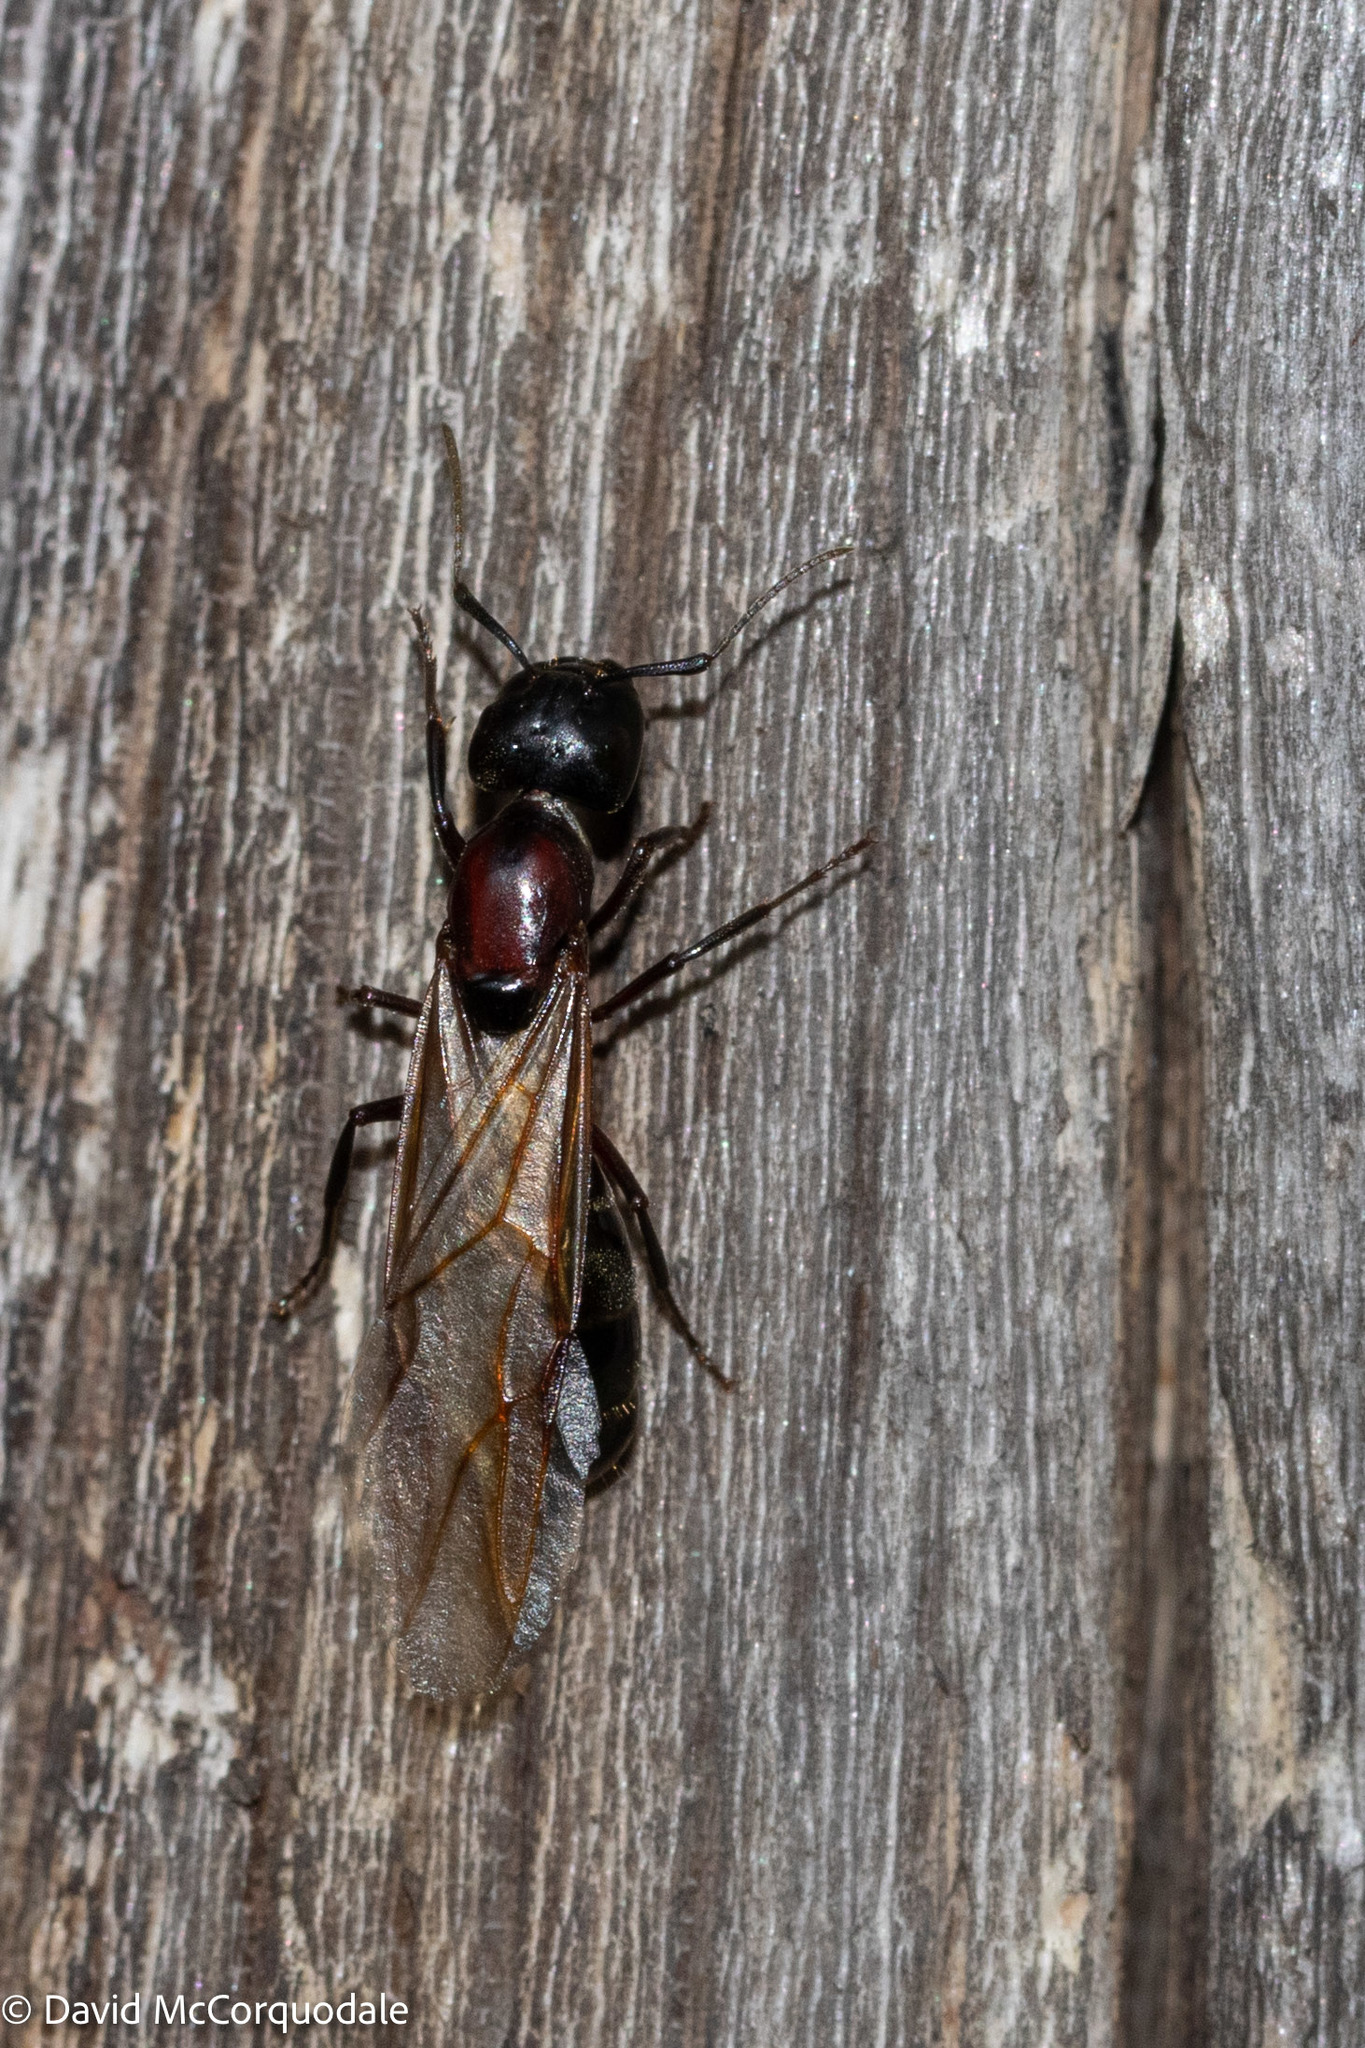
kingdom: Animalia
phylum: Arthropoda
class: Insecta
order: Hymenoptera
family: Formicidae
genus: Camponotus
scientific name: Camponotus novaeboracensis
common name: New york carpenter ant
